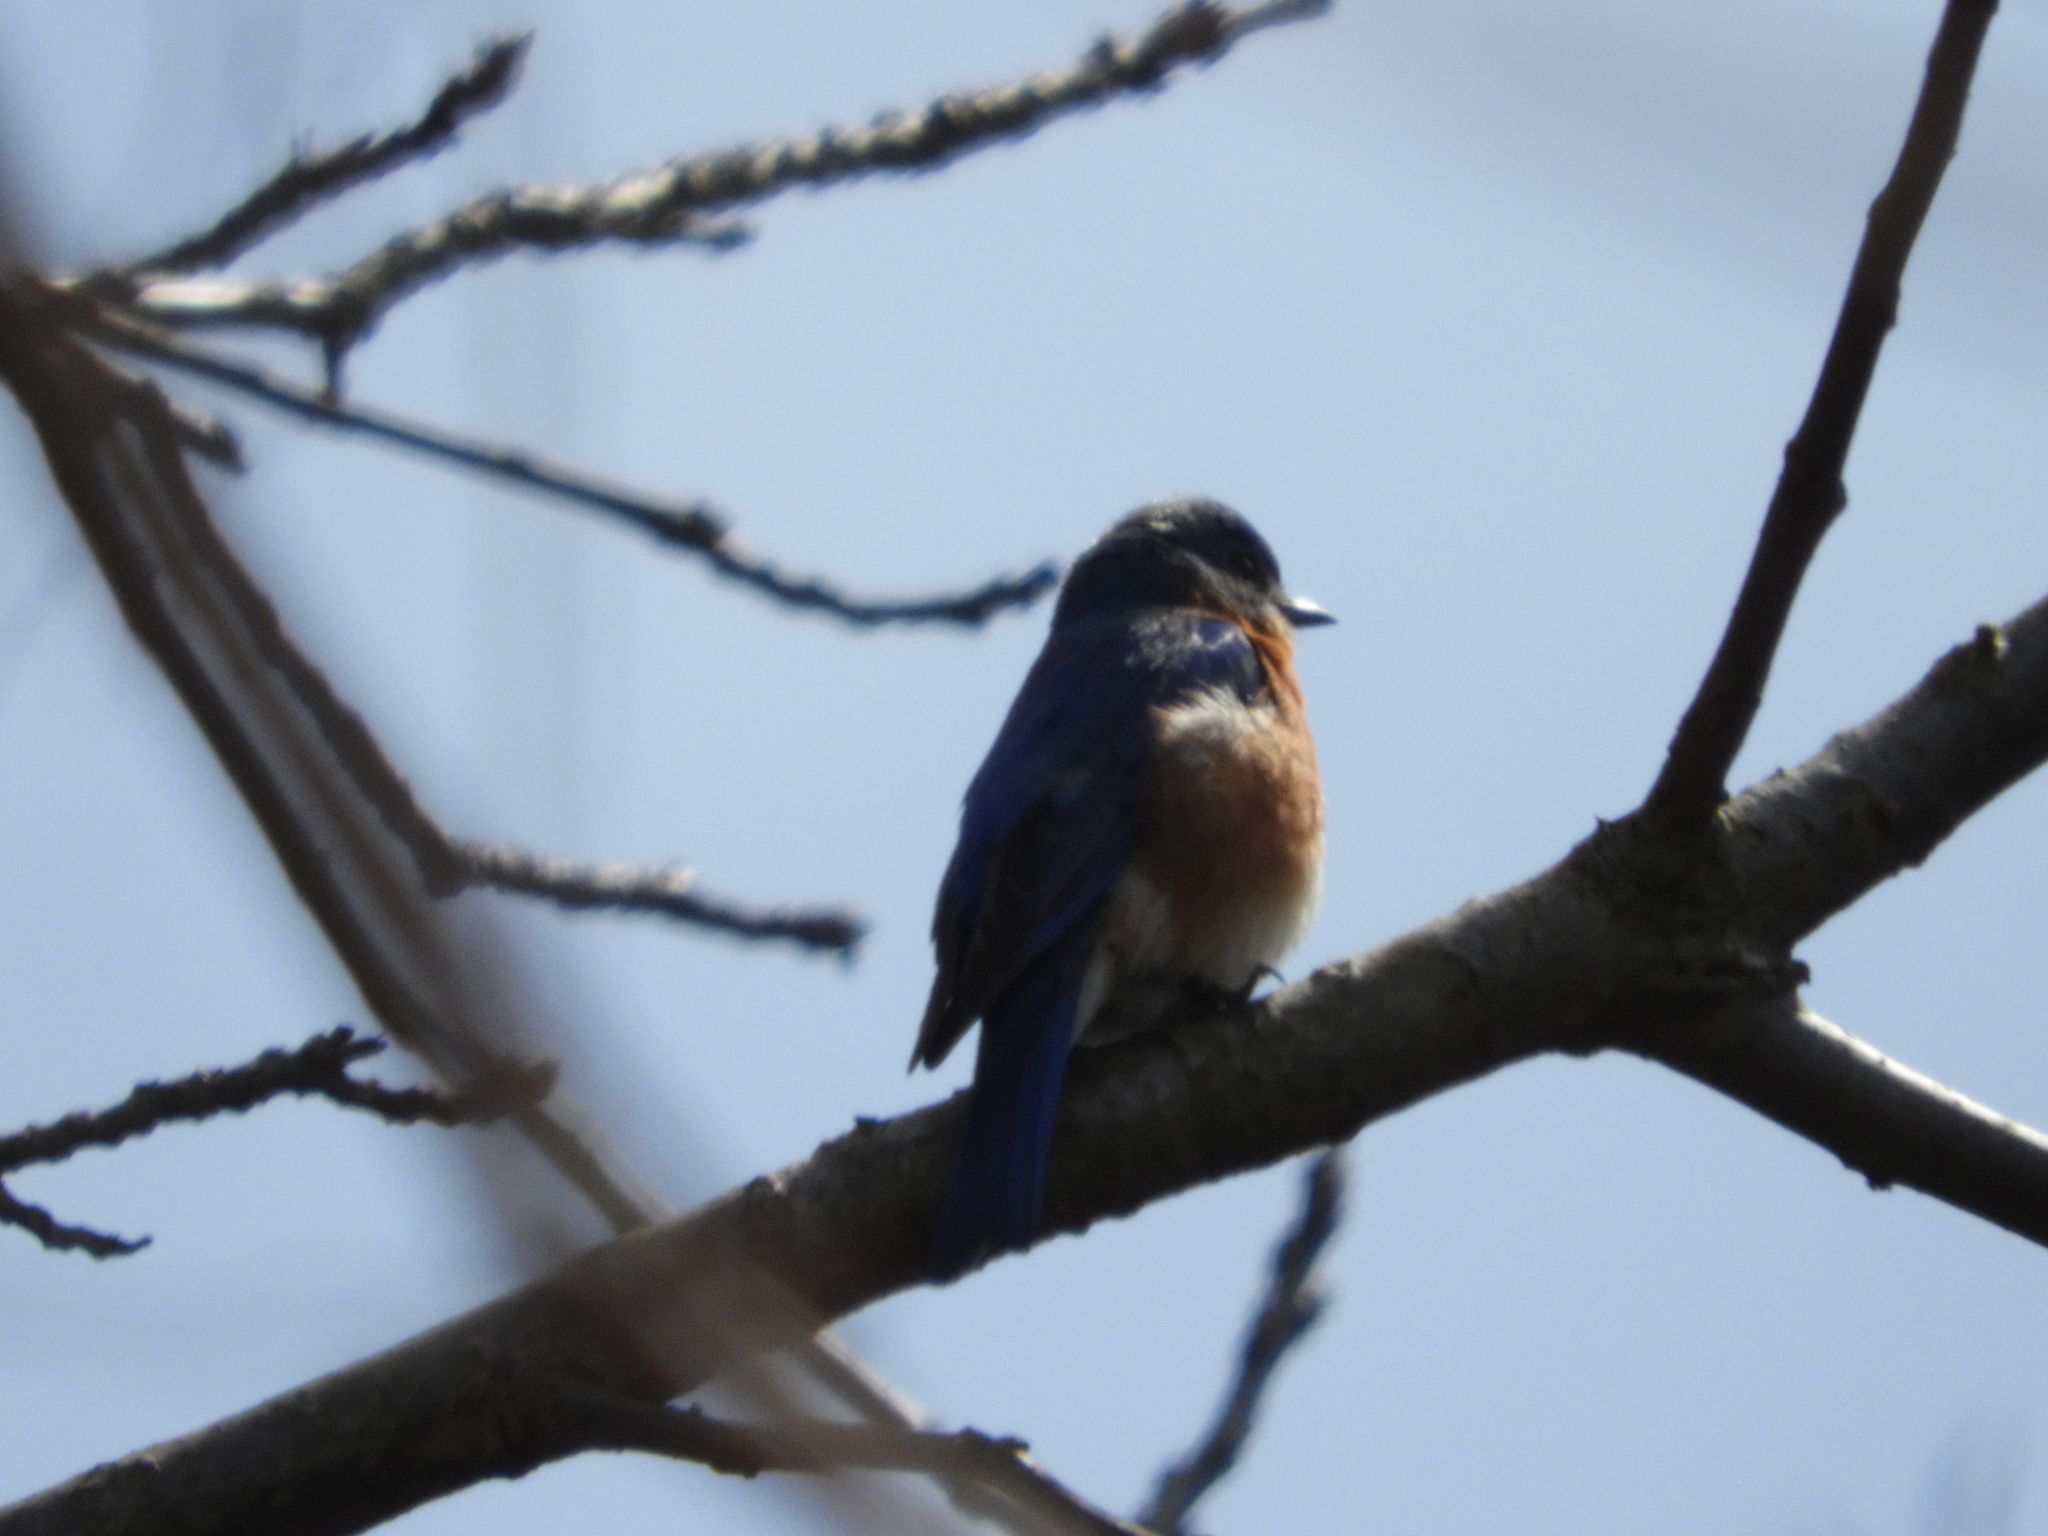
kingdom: Animalia
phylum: Chordata
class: Aves
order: Passeriformes
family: Turdidae
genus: Sialia
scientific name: Sialia sialis
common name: Eastern bluebird
